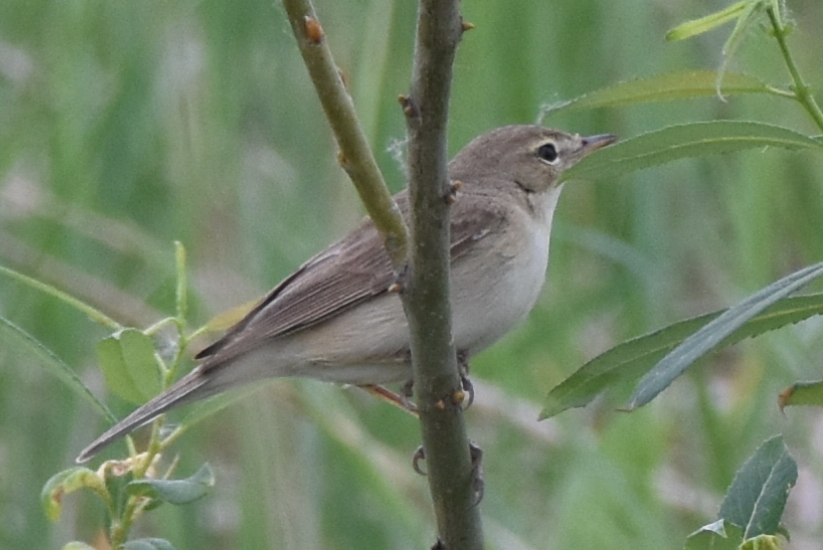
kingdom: Animalia
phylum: Chordata
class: Aves
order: Passeriformes
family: Acrocephalidae
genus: Iduna
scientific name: Iduna caligata
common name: Booted warbler
